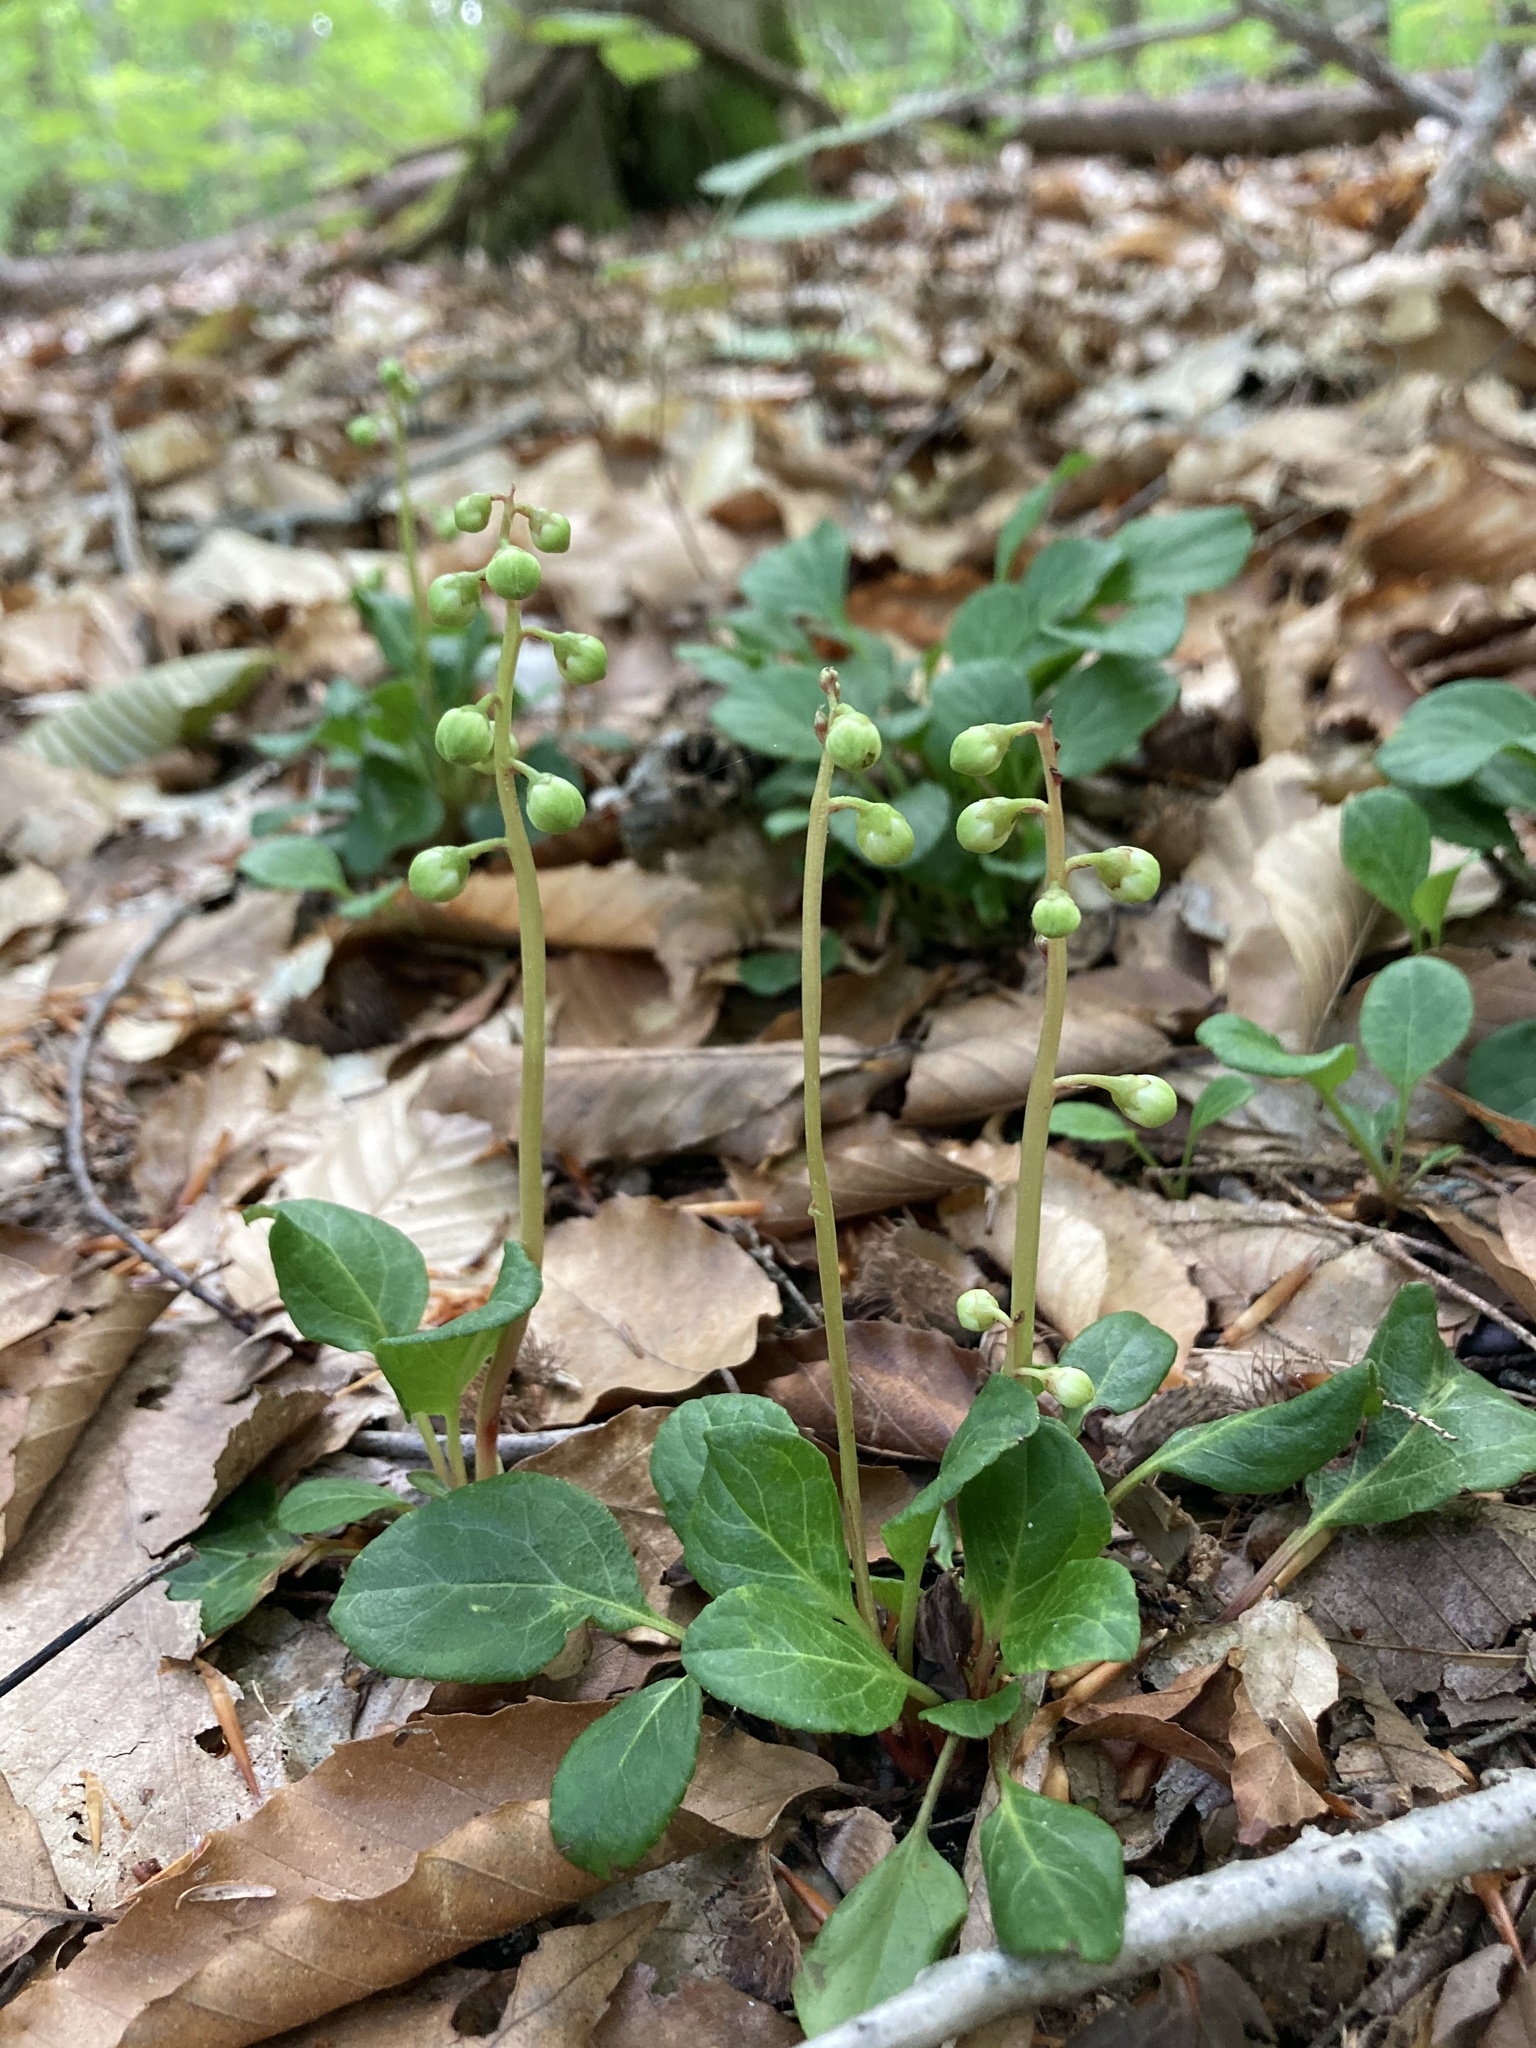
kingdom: Plantae
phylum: Tracheophyta
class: Magnoliopsida
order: Ericales
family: Ericaceae
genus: Pyrola
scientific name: Pyrola chlorantha
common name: Green wintergreen
